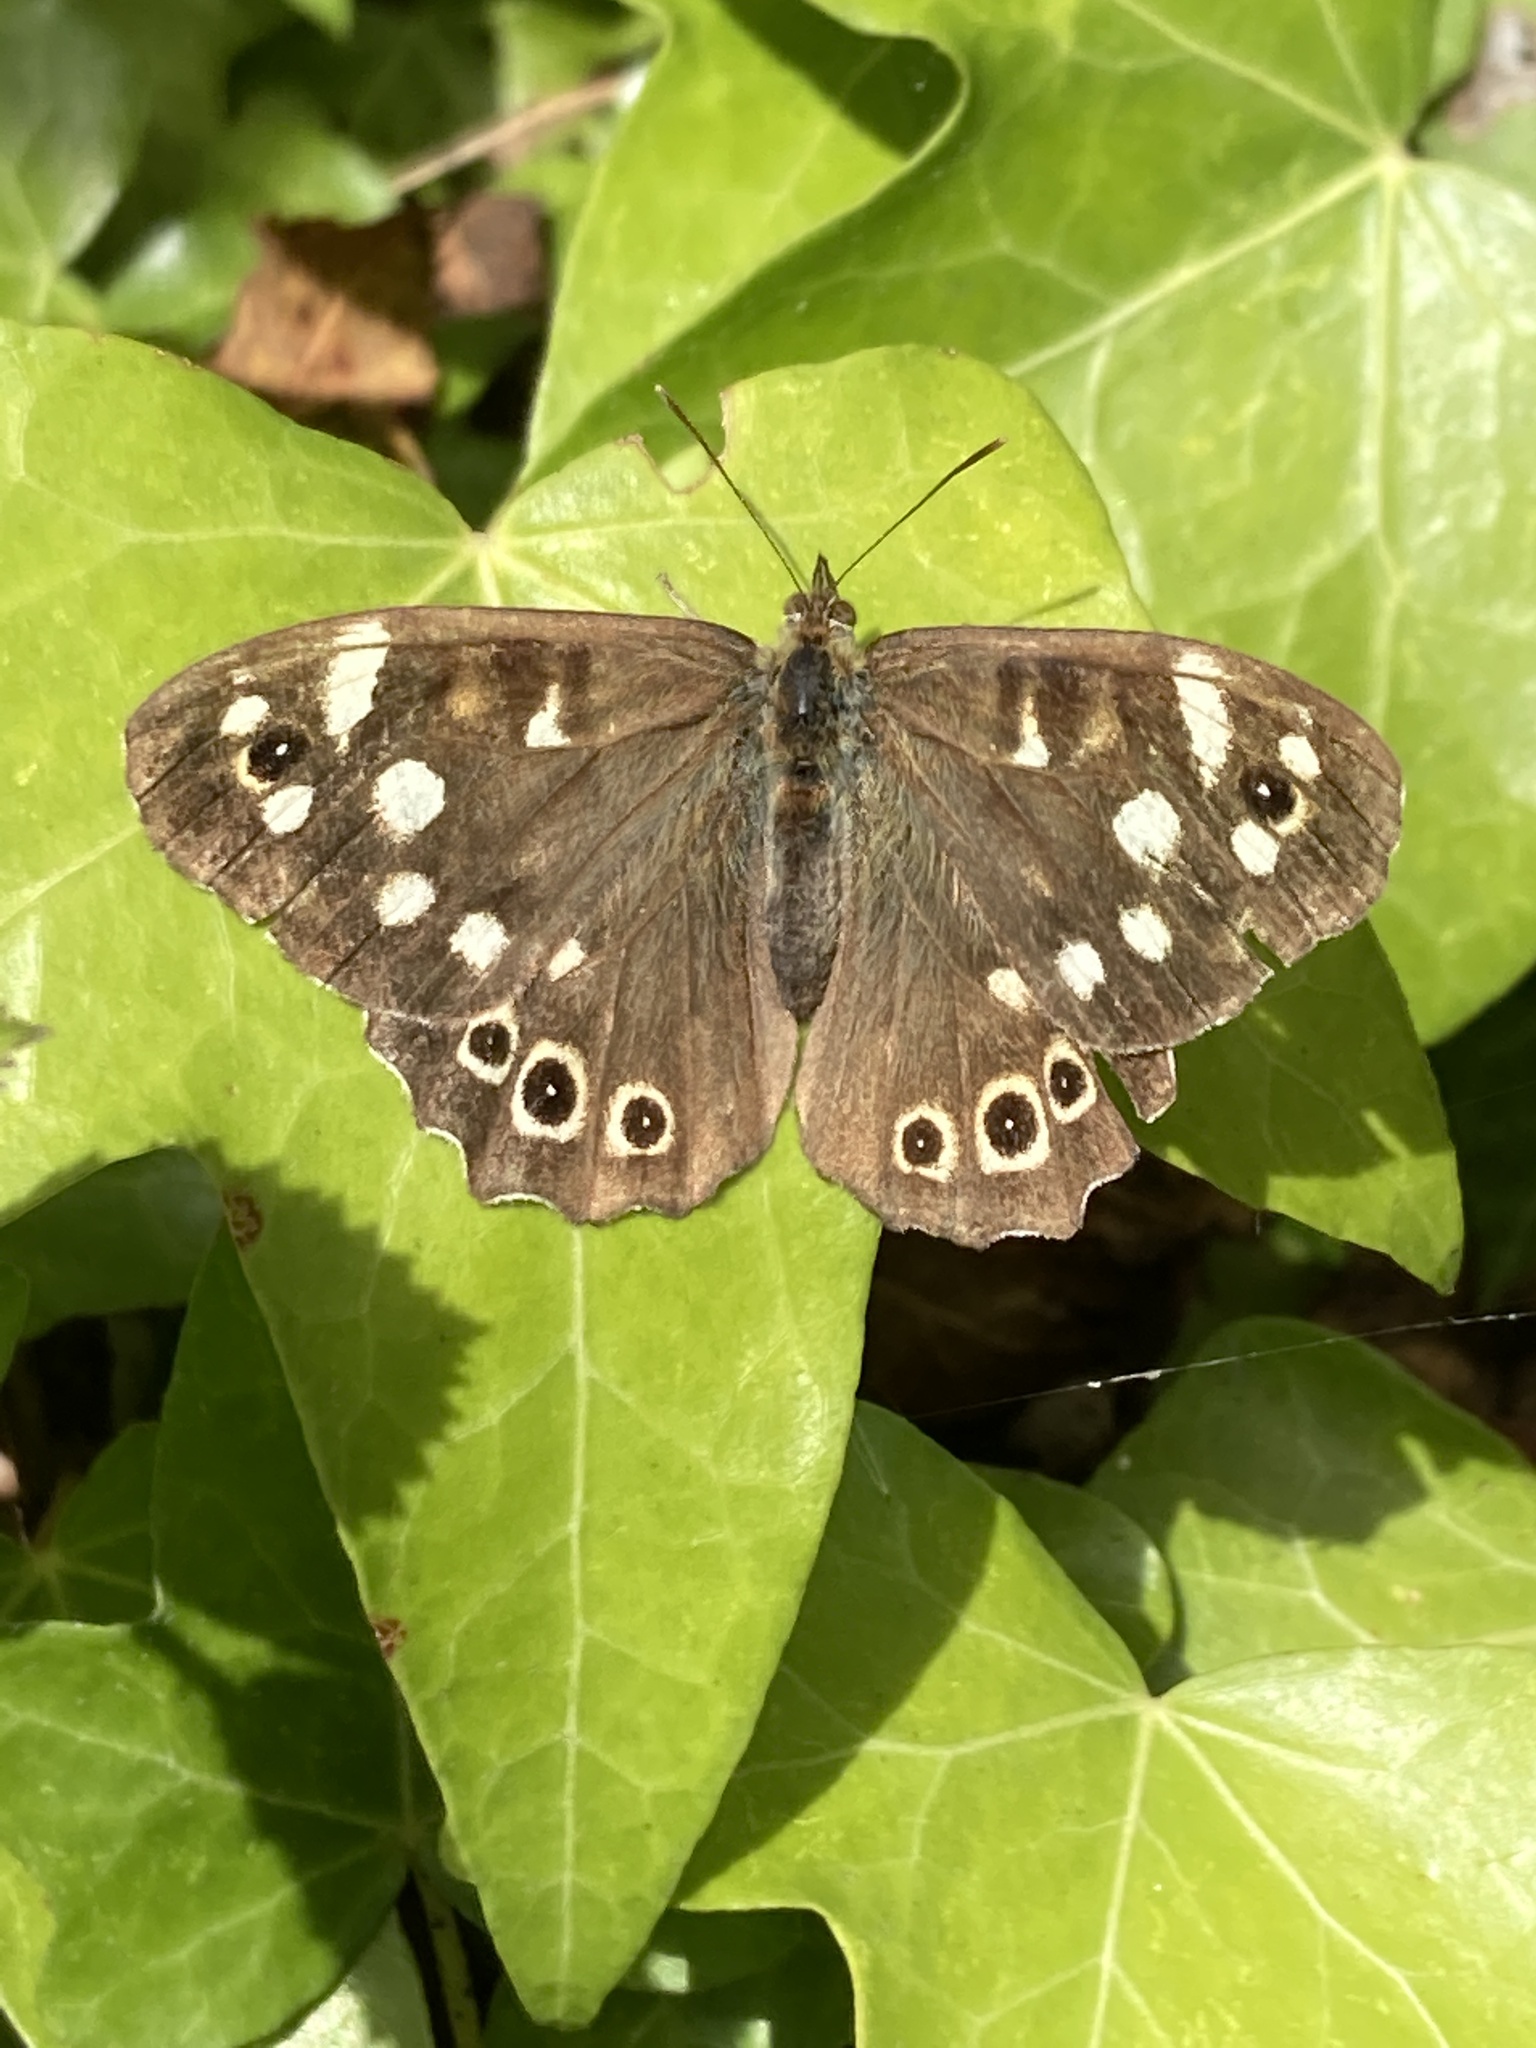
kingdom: Animalia
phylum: Arthropoda
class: Insecta
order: Lepidoptera
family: Nymphalidae
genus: Pararge
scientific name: Pararge aegeria
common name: Speckled wood
